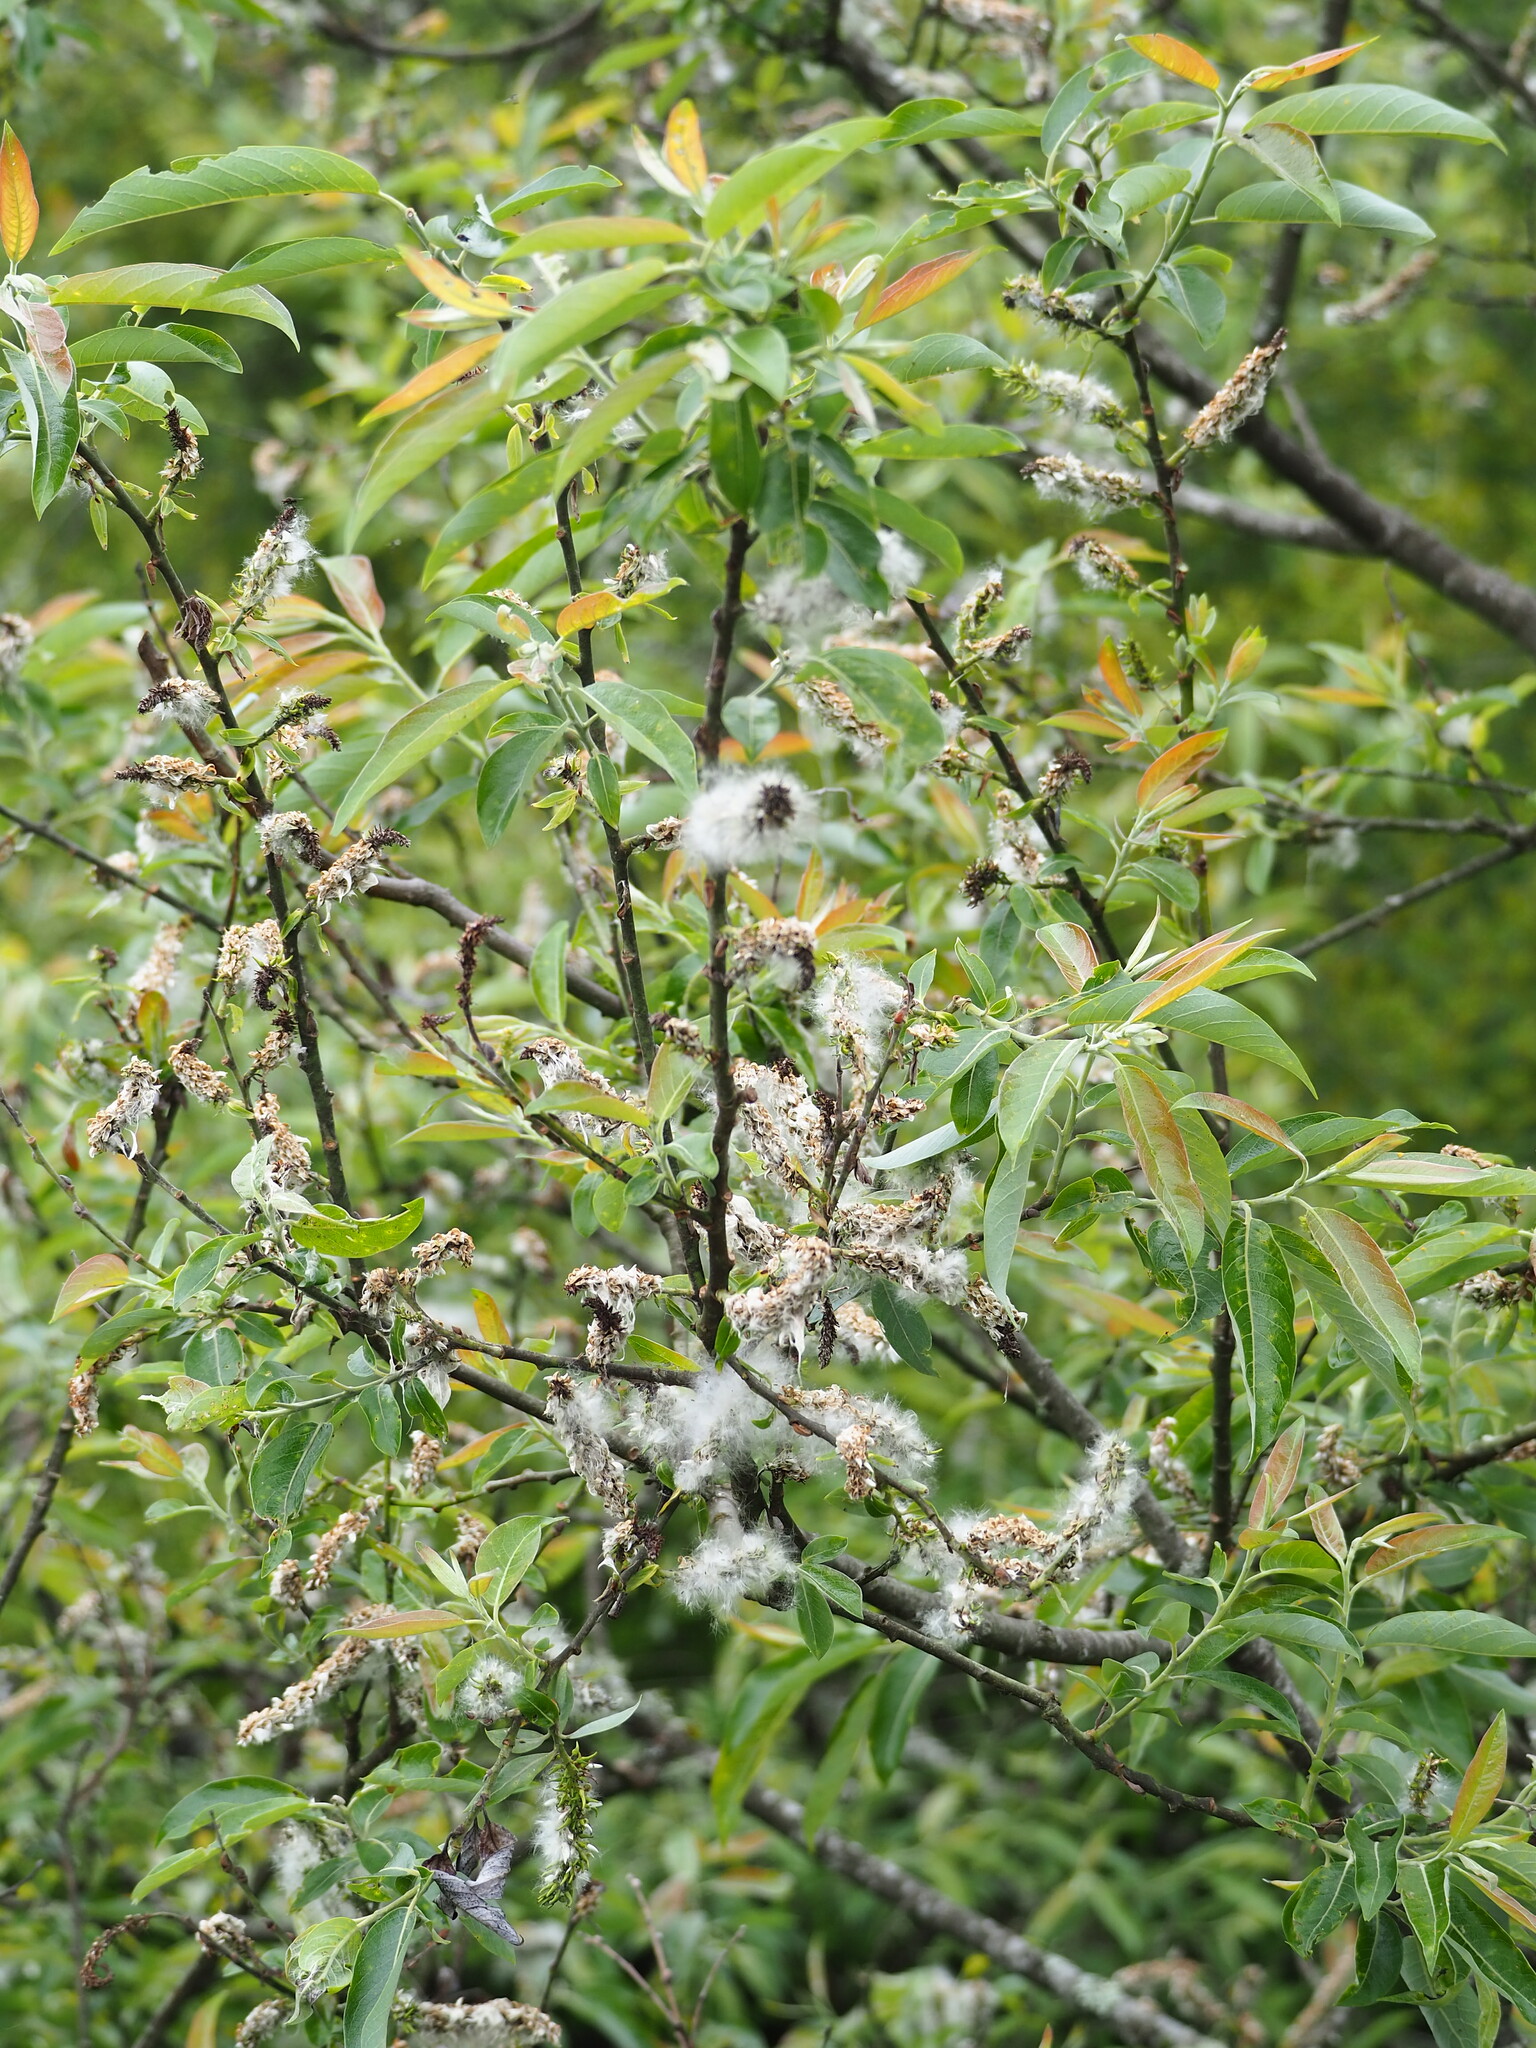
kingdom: Plantae
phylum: Tracheophyta
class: Magnoliopsida
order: Malpighiales
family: Salicaceae
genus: Salix
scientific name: Salix fulvopubescens
